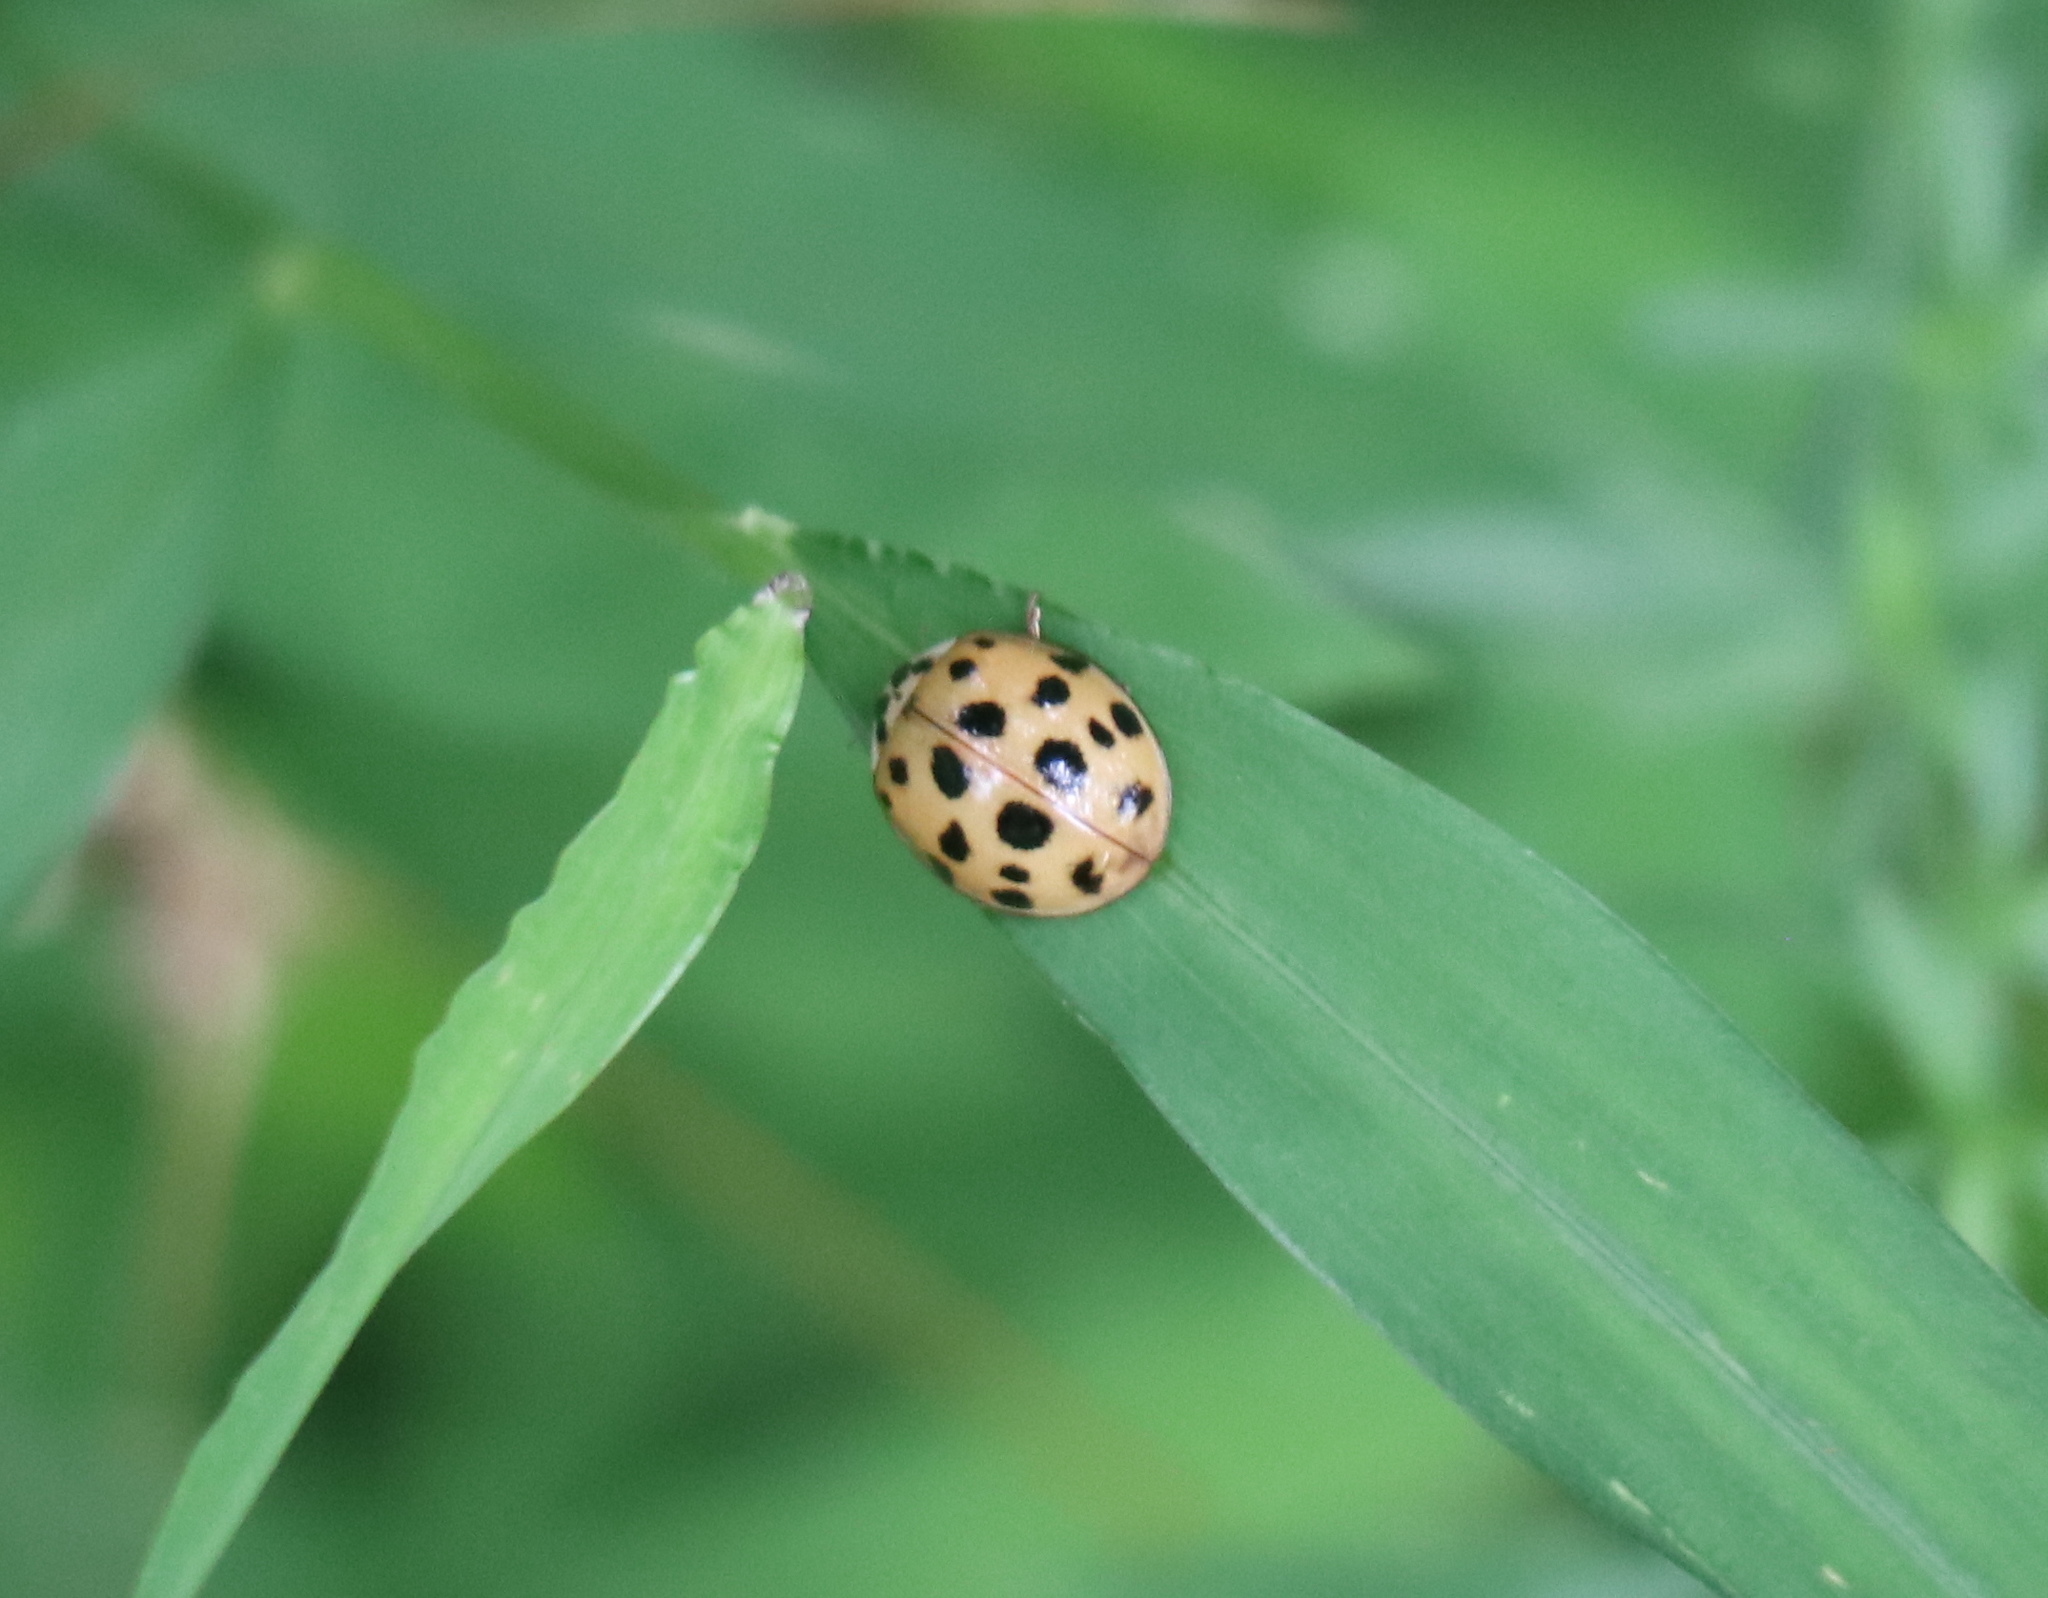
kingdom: Animalia
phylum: Arthropoda
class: Insecta
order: Coleoptera
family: Coccinellidae
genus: Harmonia
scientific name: Harmonia axyridis
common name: Harlequin ladybird
